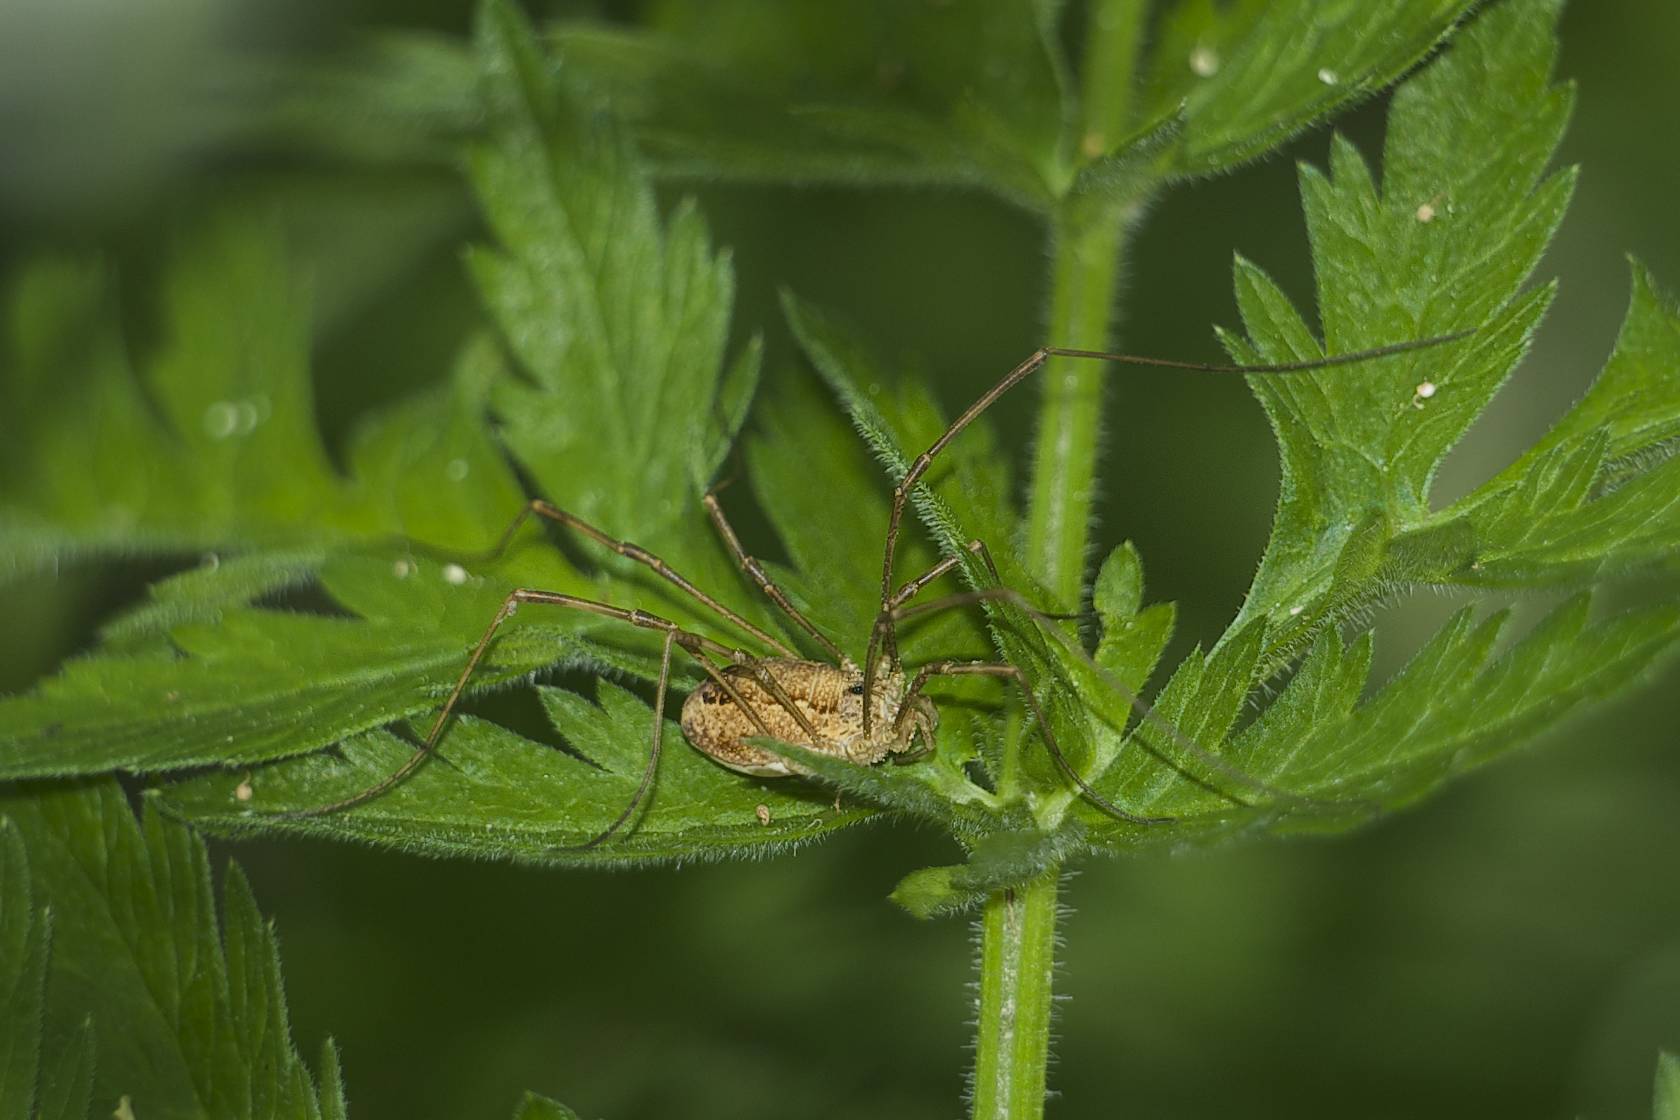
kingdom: Animalia
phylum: Arthropoda
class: Arachnida
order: Opiliones
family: Phalangiidae
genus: Rilaena
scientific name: Rilaena triangularis
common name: Spring harvestman
